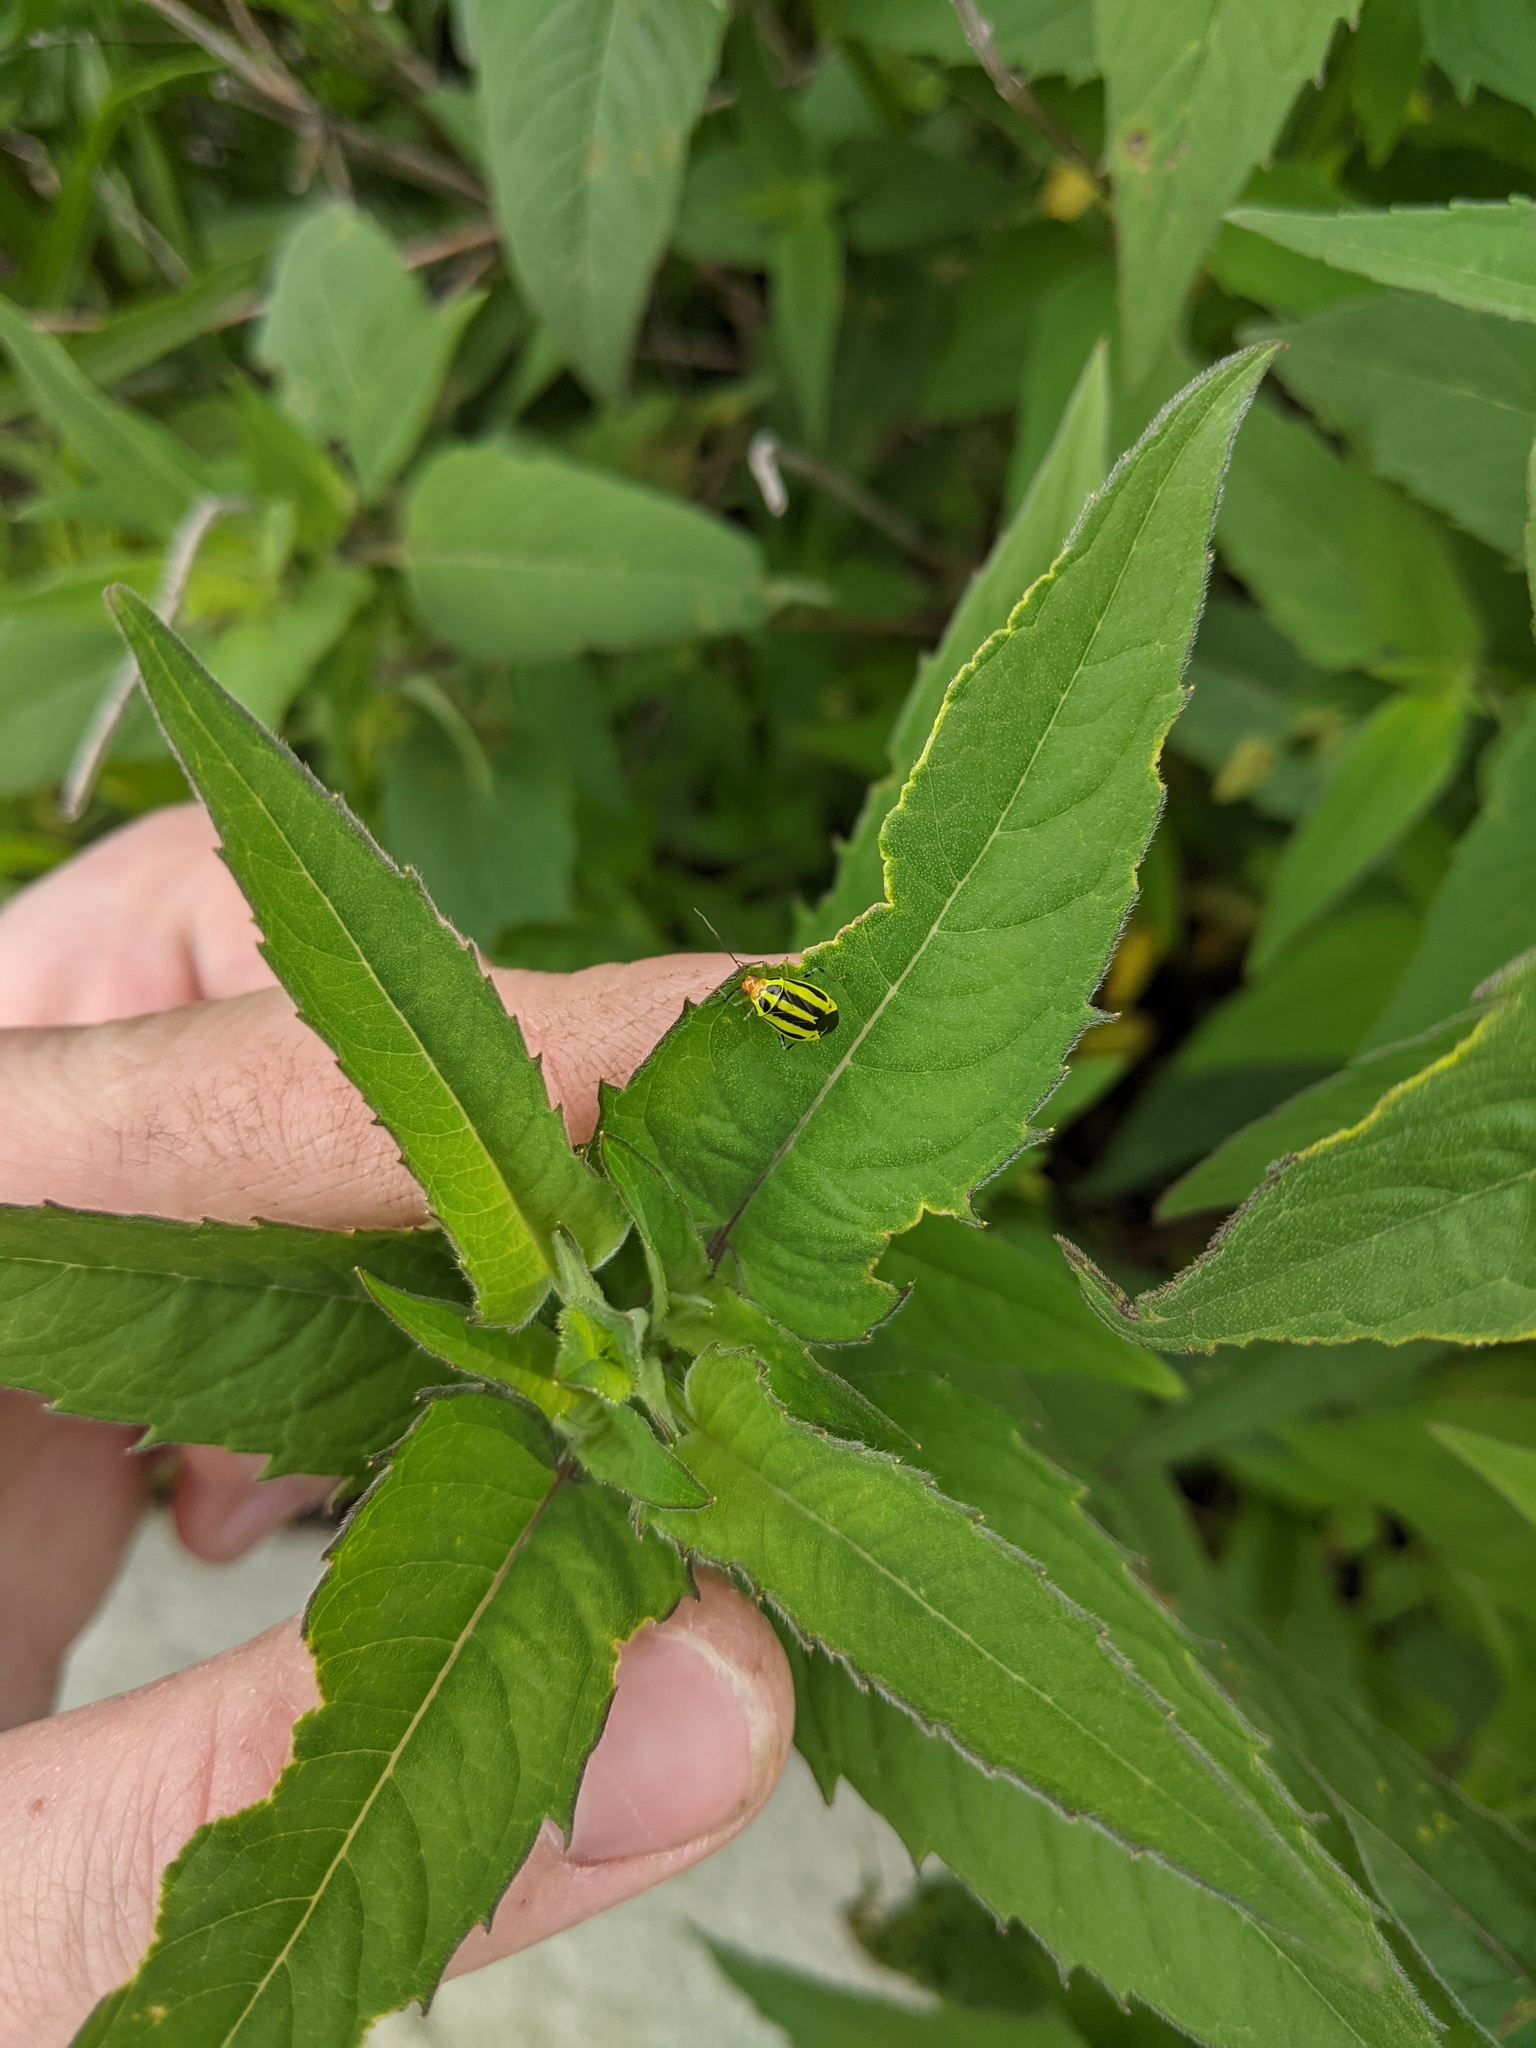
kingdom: Animalia
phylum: Arthropoda
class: Insecta
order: Hemiptera
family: Miridae
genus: Poecilocapsus
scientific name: Poecilocapsus lineatus
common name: Four-lined plant bug
